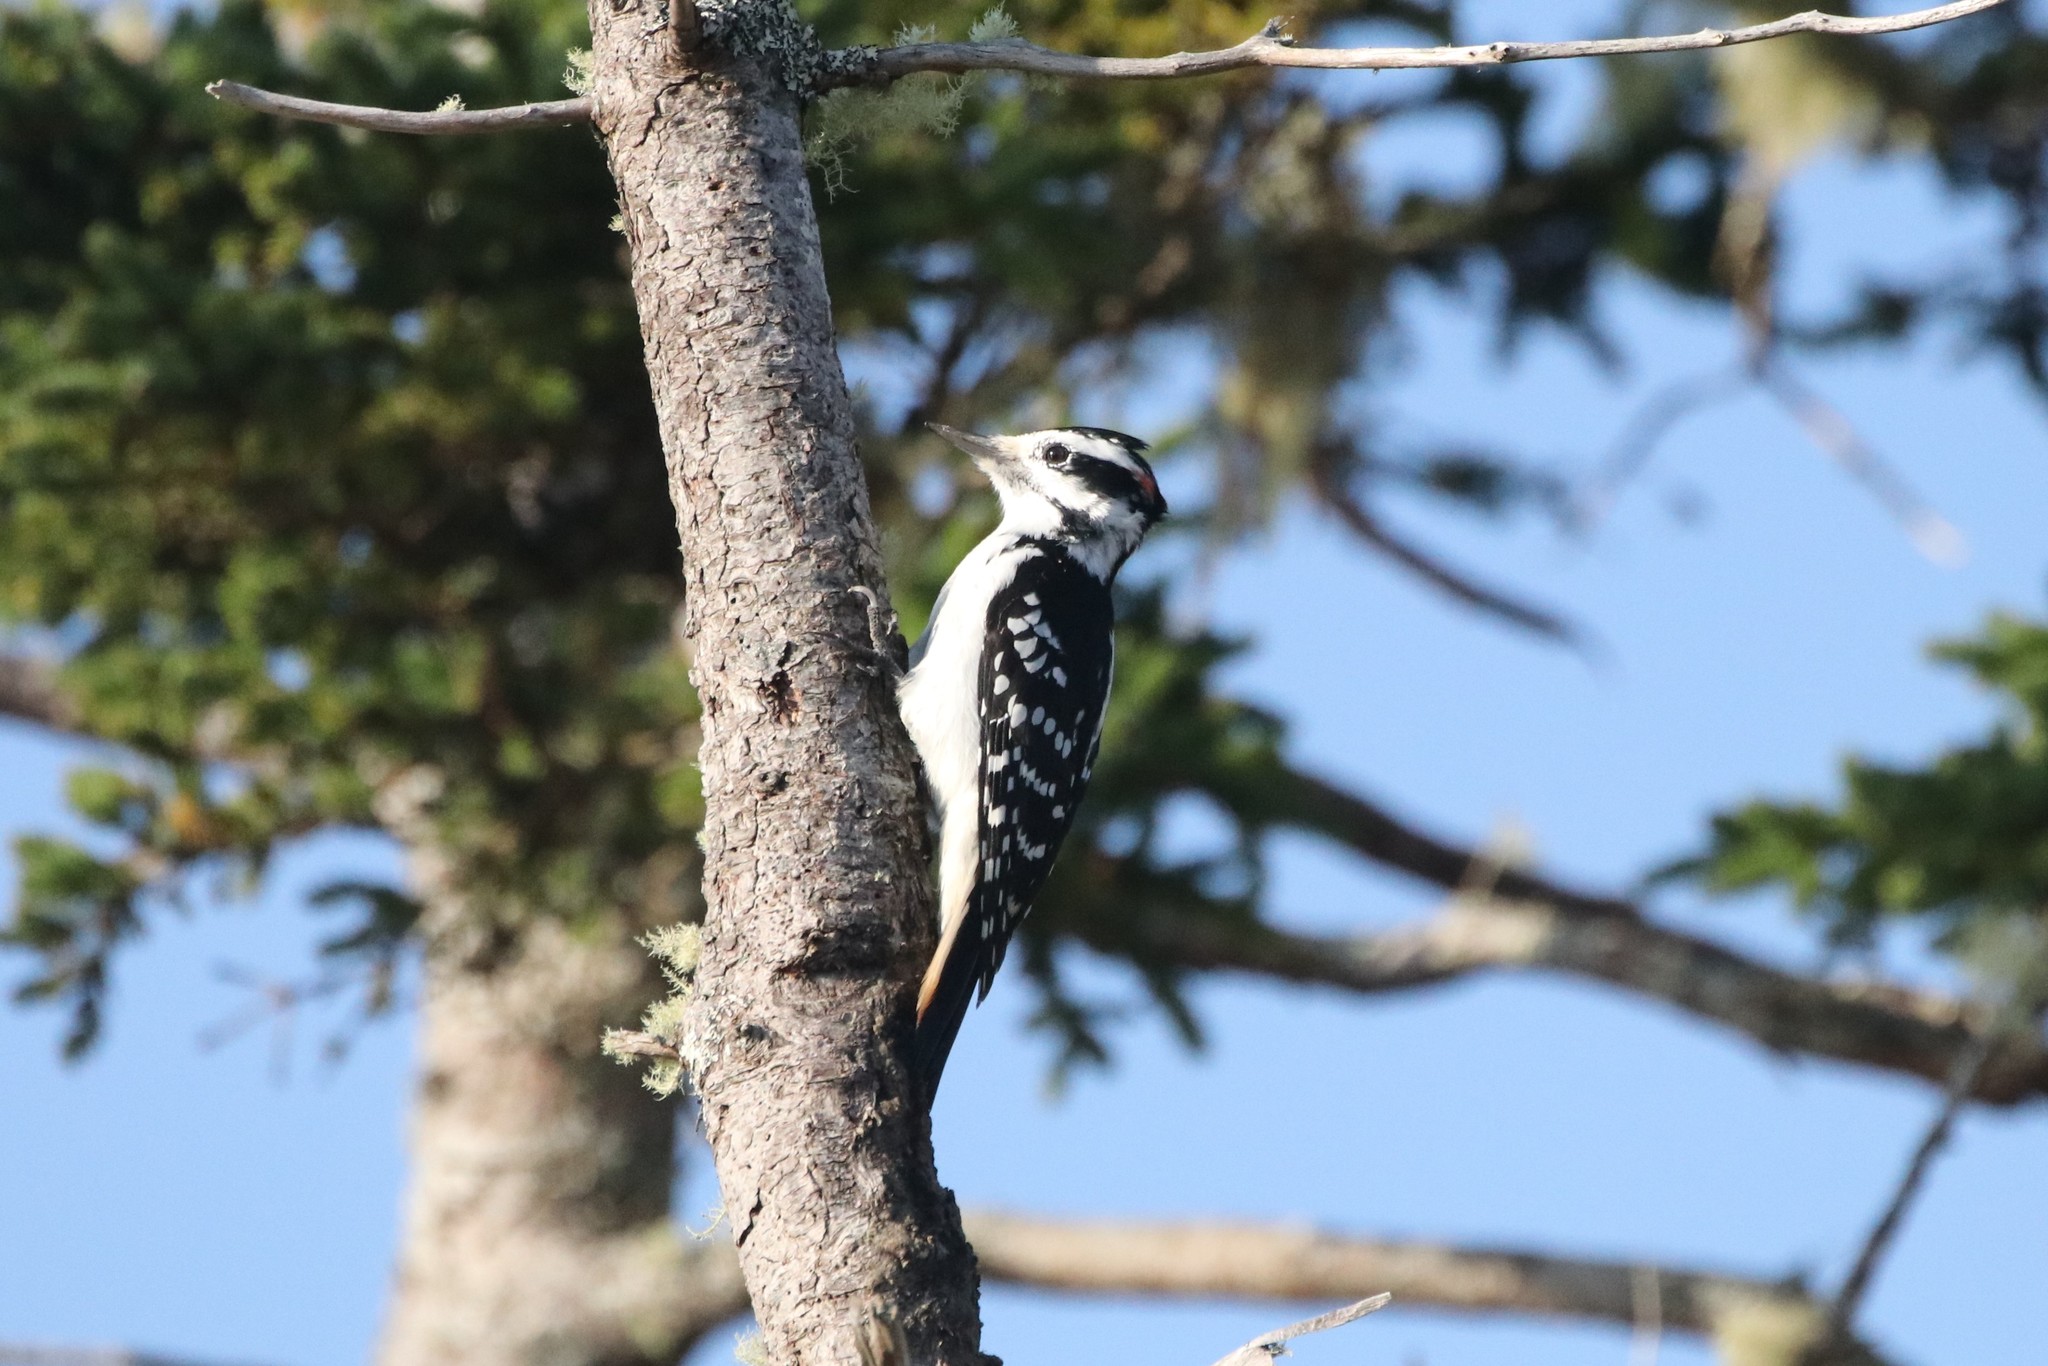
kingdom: Animalia
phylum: Chordata
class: Aves
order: Piciformes
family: Picidae
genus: Leuconotopicus
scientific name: Leuconotopicus villosus
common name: Hairy woodpecker
